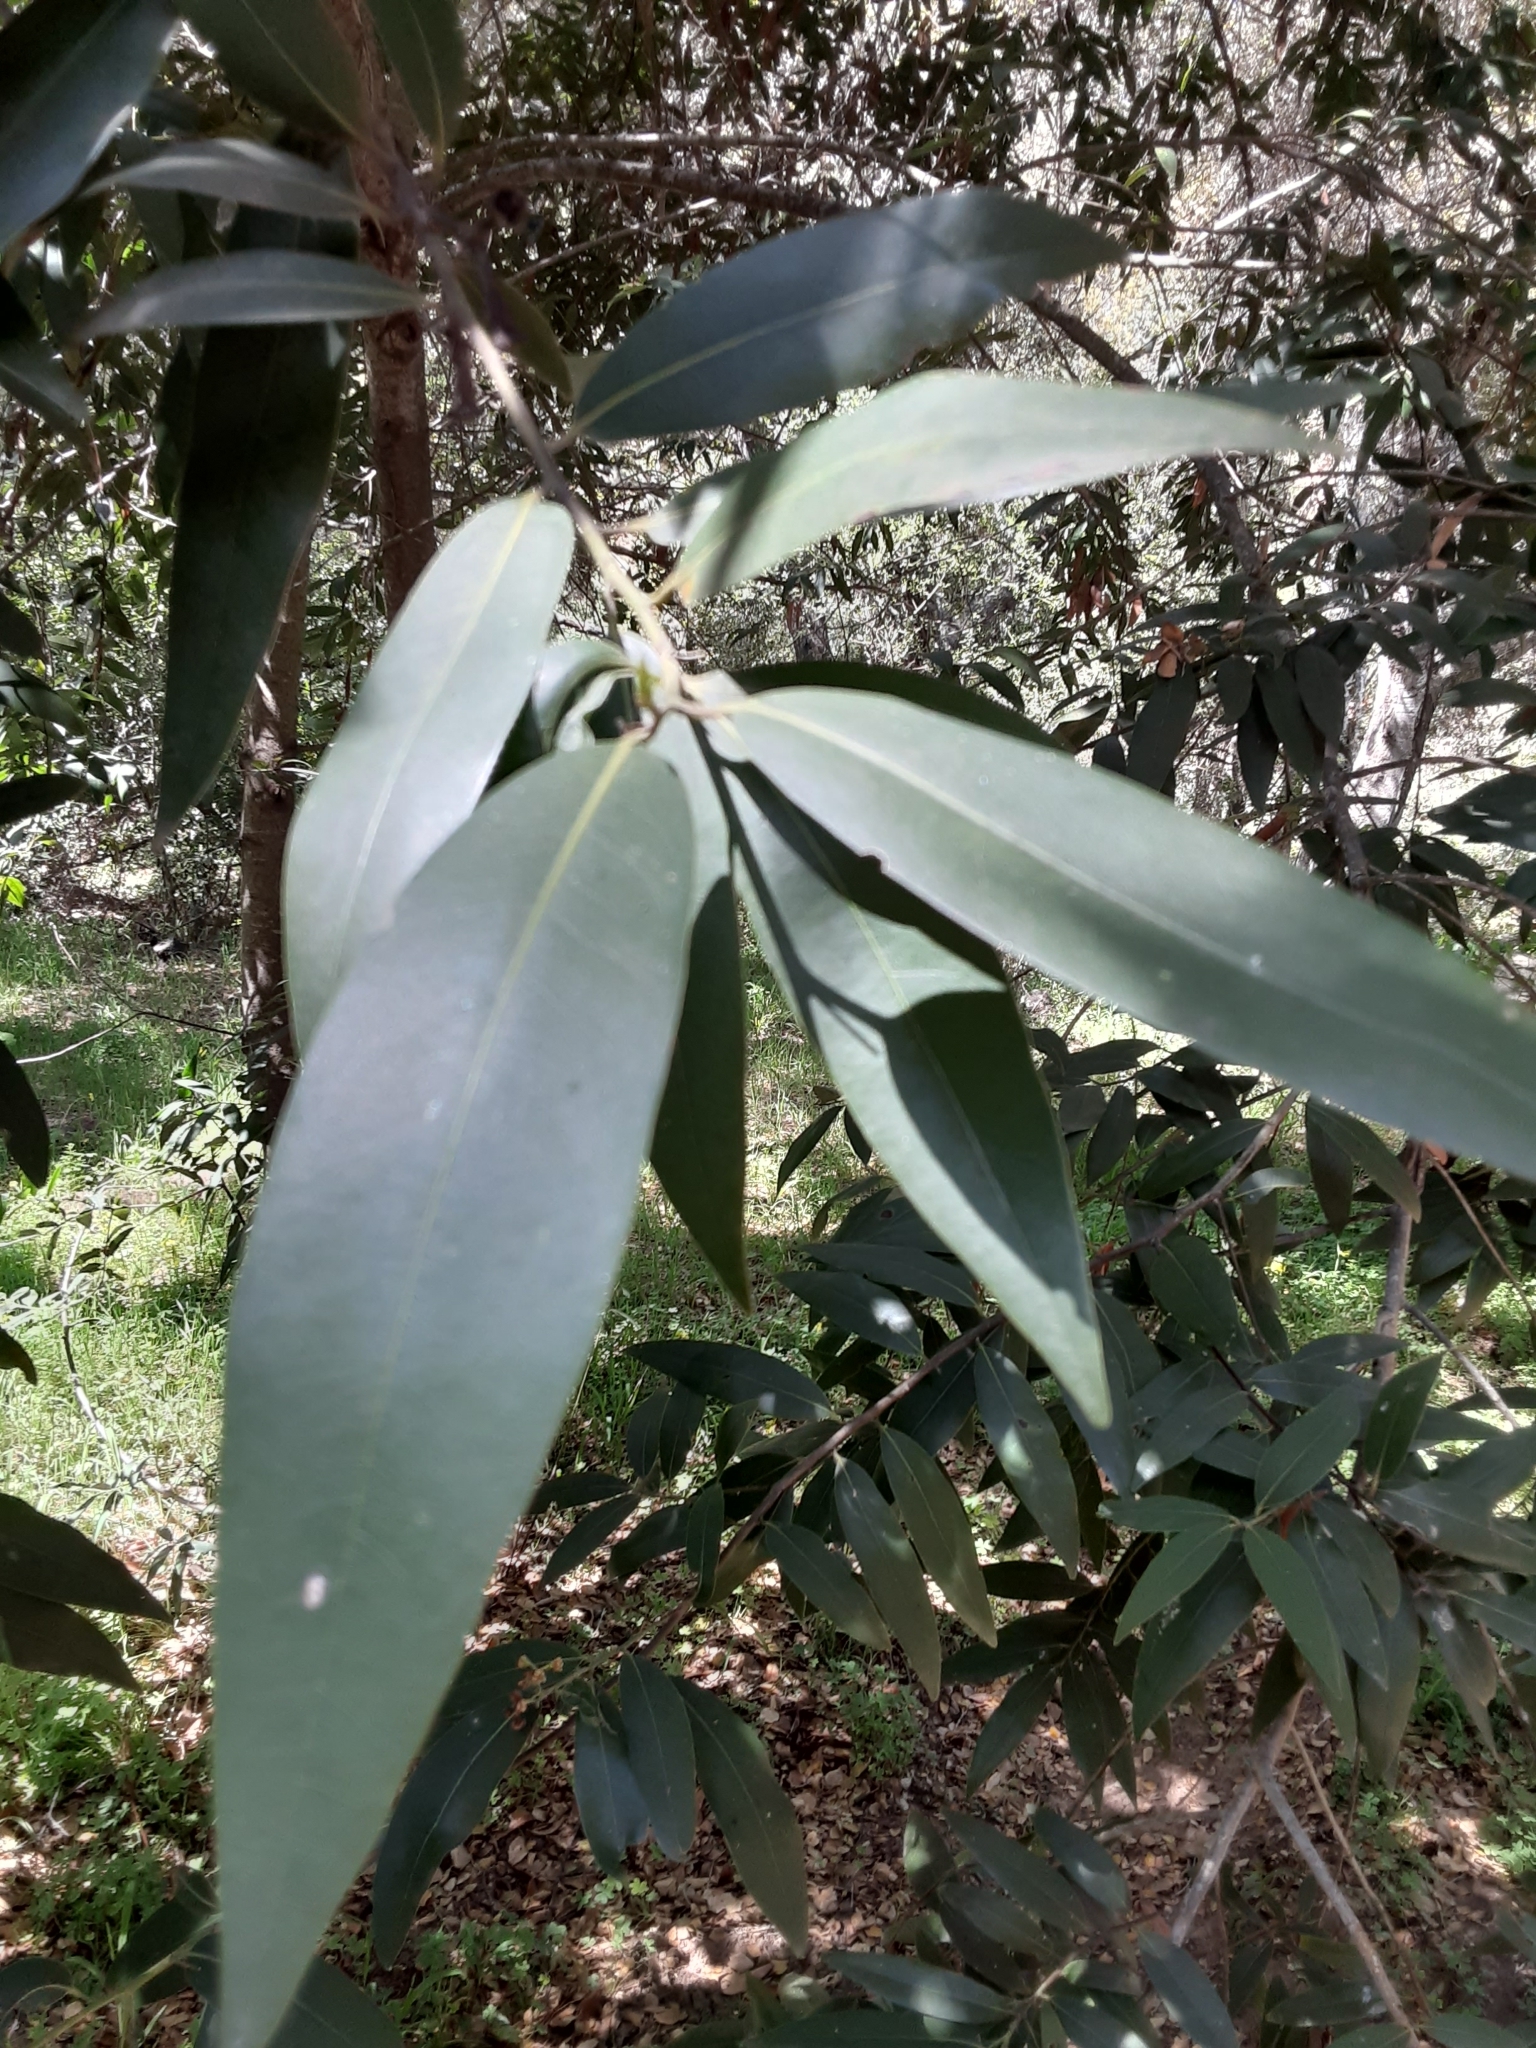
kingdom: Plantae
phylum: Tracheophyta
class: Magnoliopsida
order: Laurales
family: Lauraceae
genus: Umbellularia
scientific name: Umbellularia californica
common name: California bay
